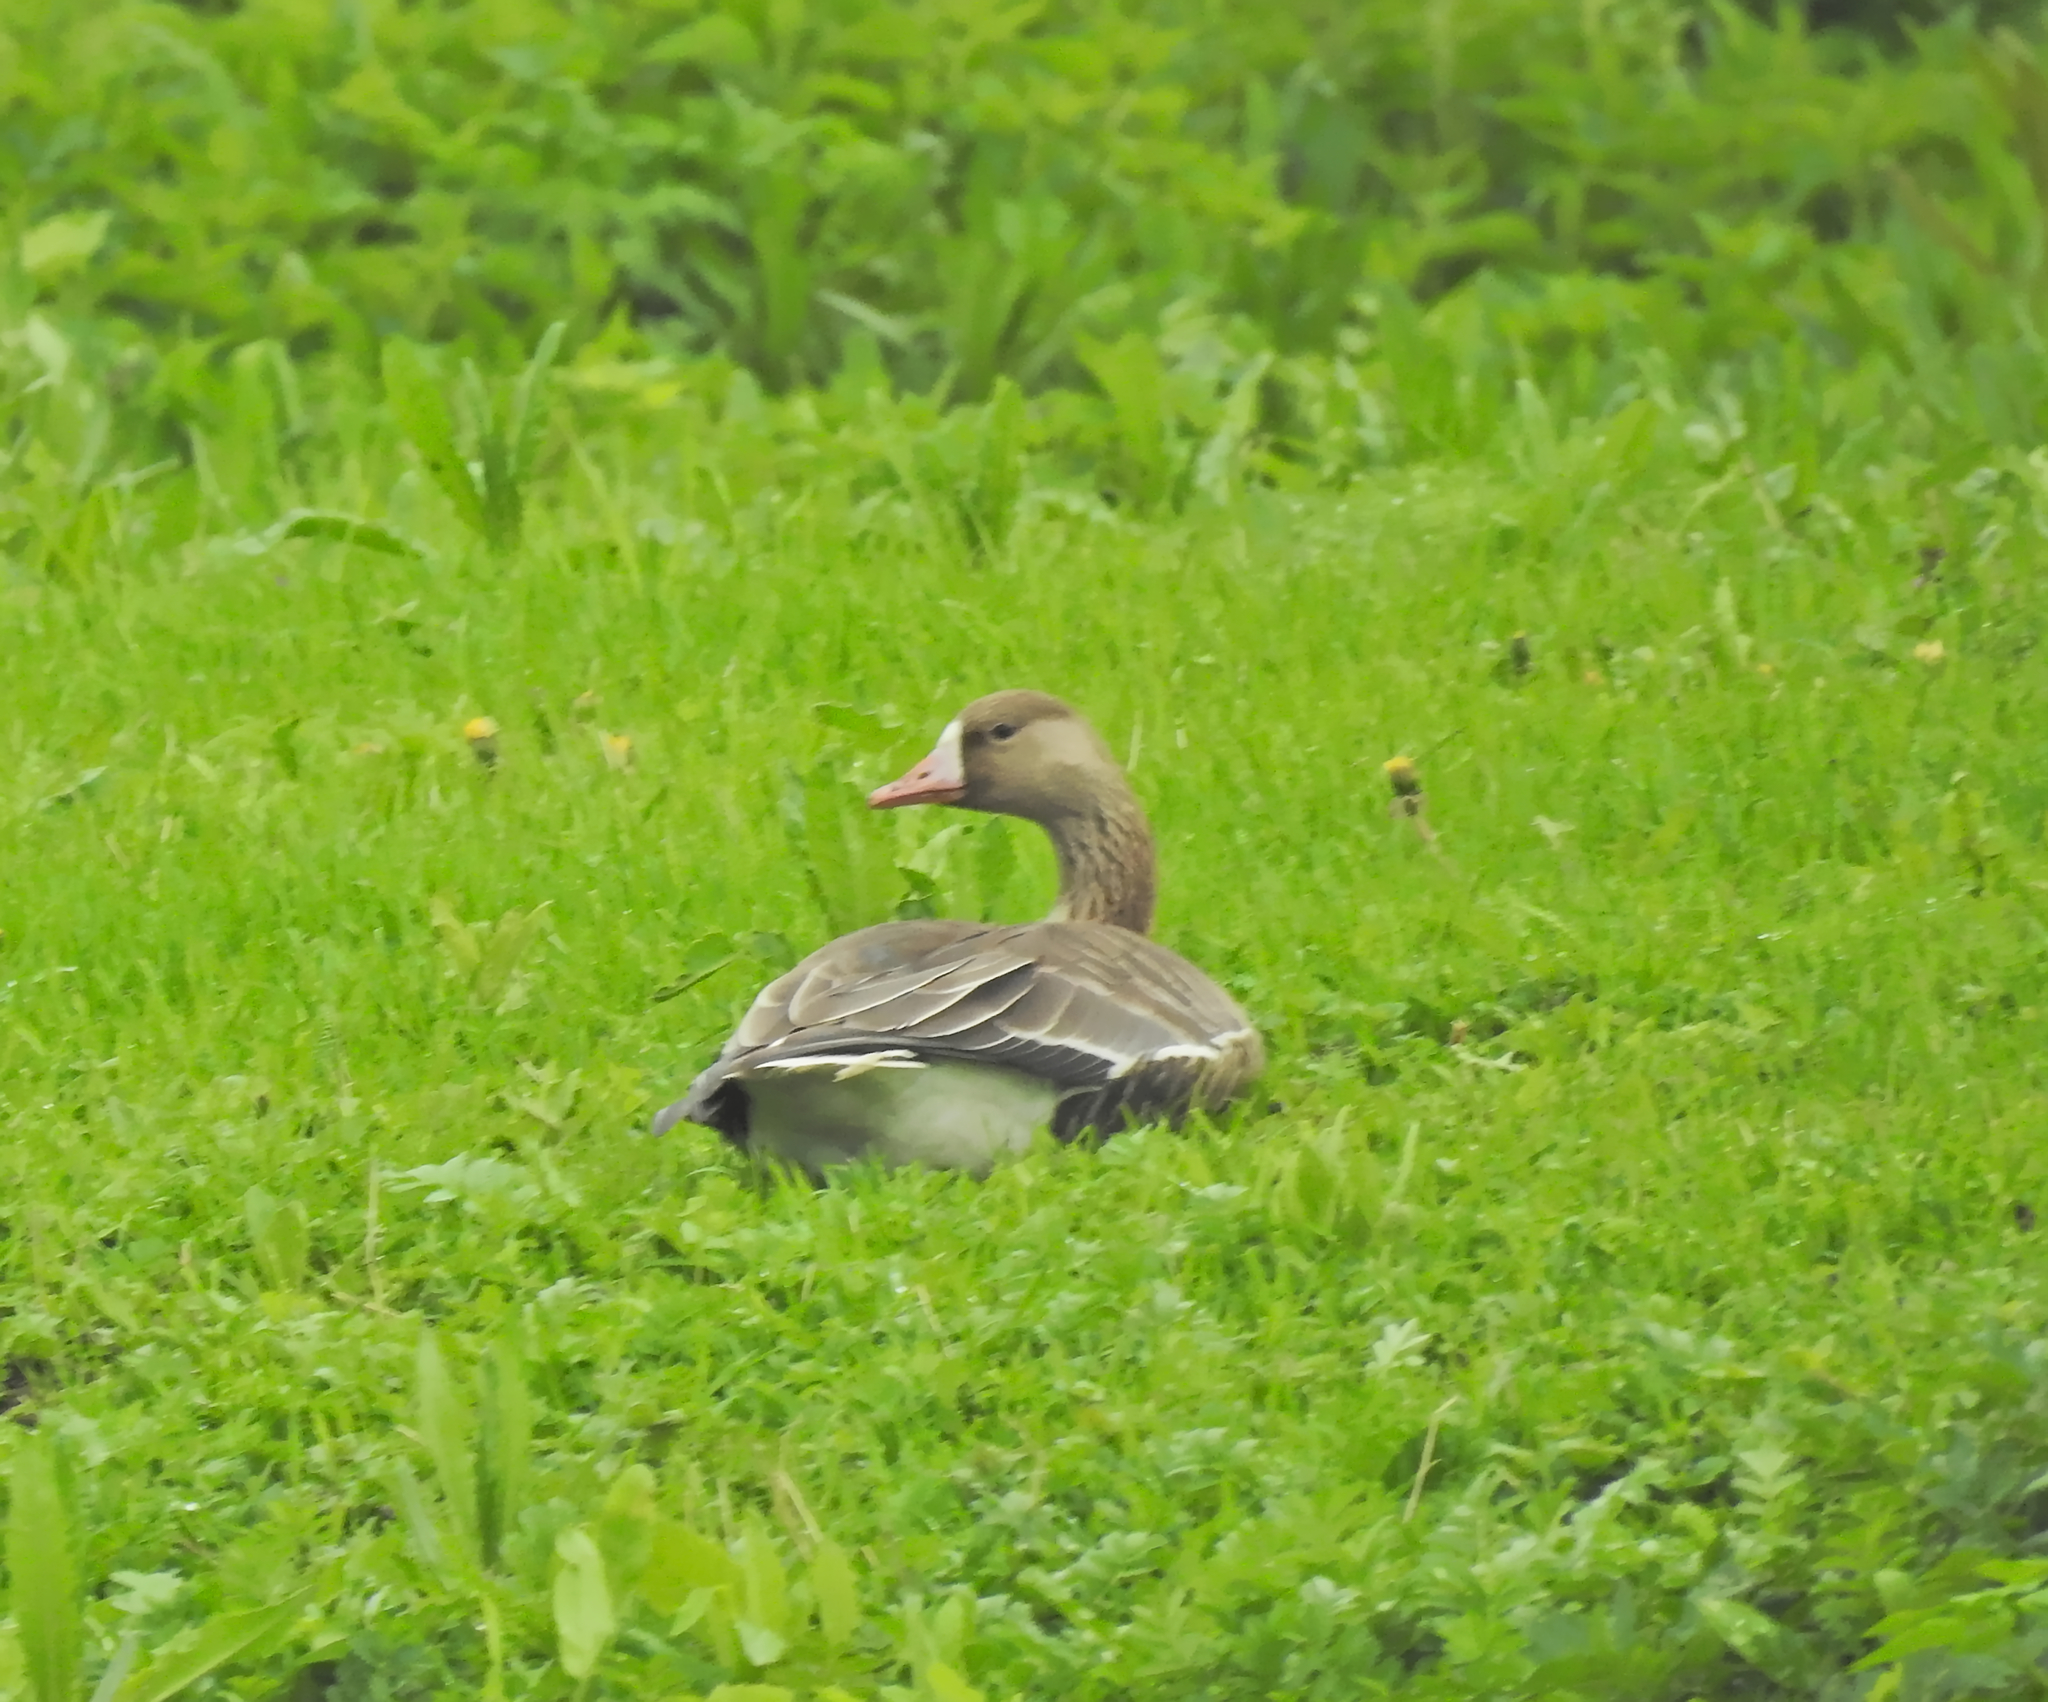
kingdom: Animalia
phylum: Chordata
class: Aves
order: Anseriformes
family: Anatidae
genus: Anser
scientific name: Anser albifrons
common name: Greater white-fronted goose
